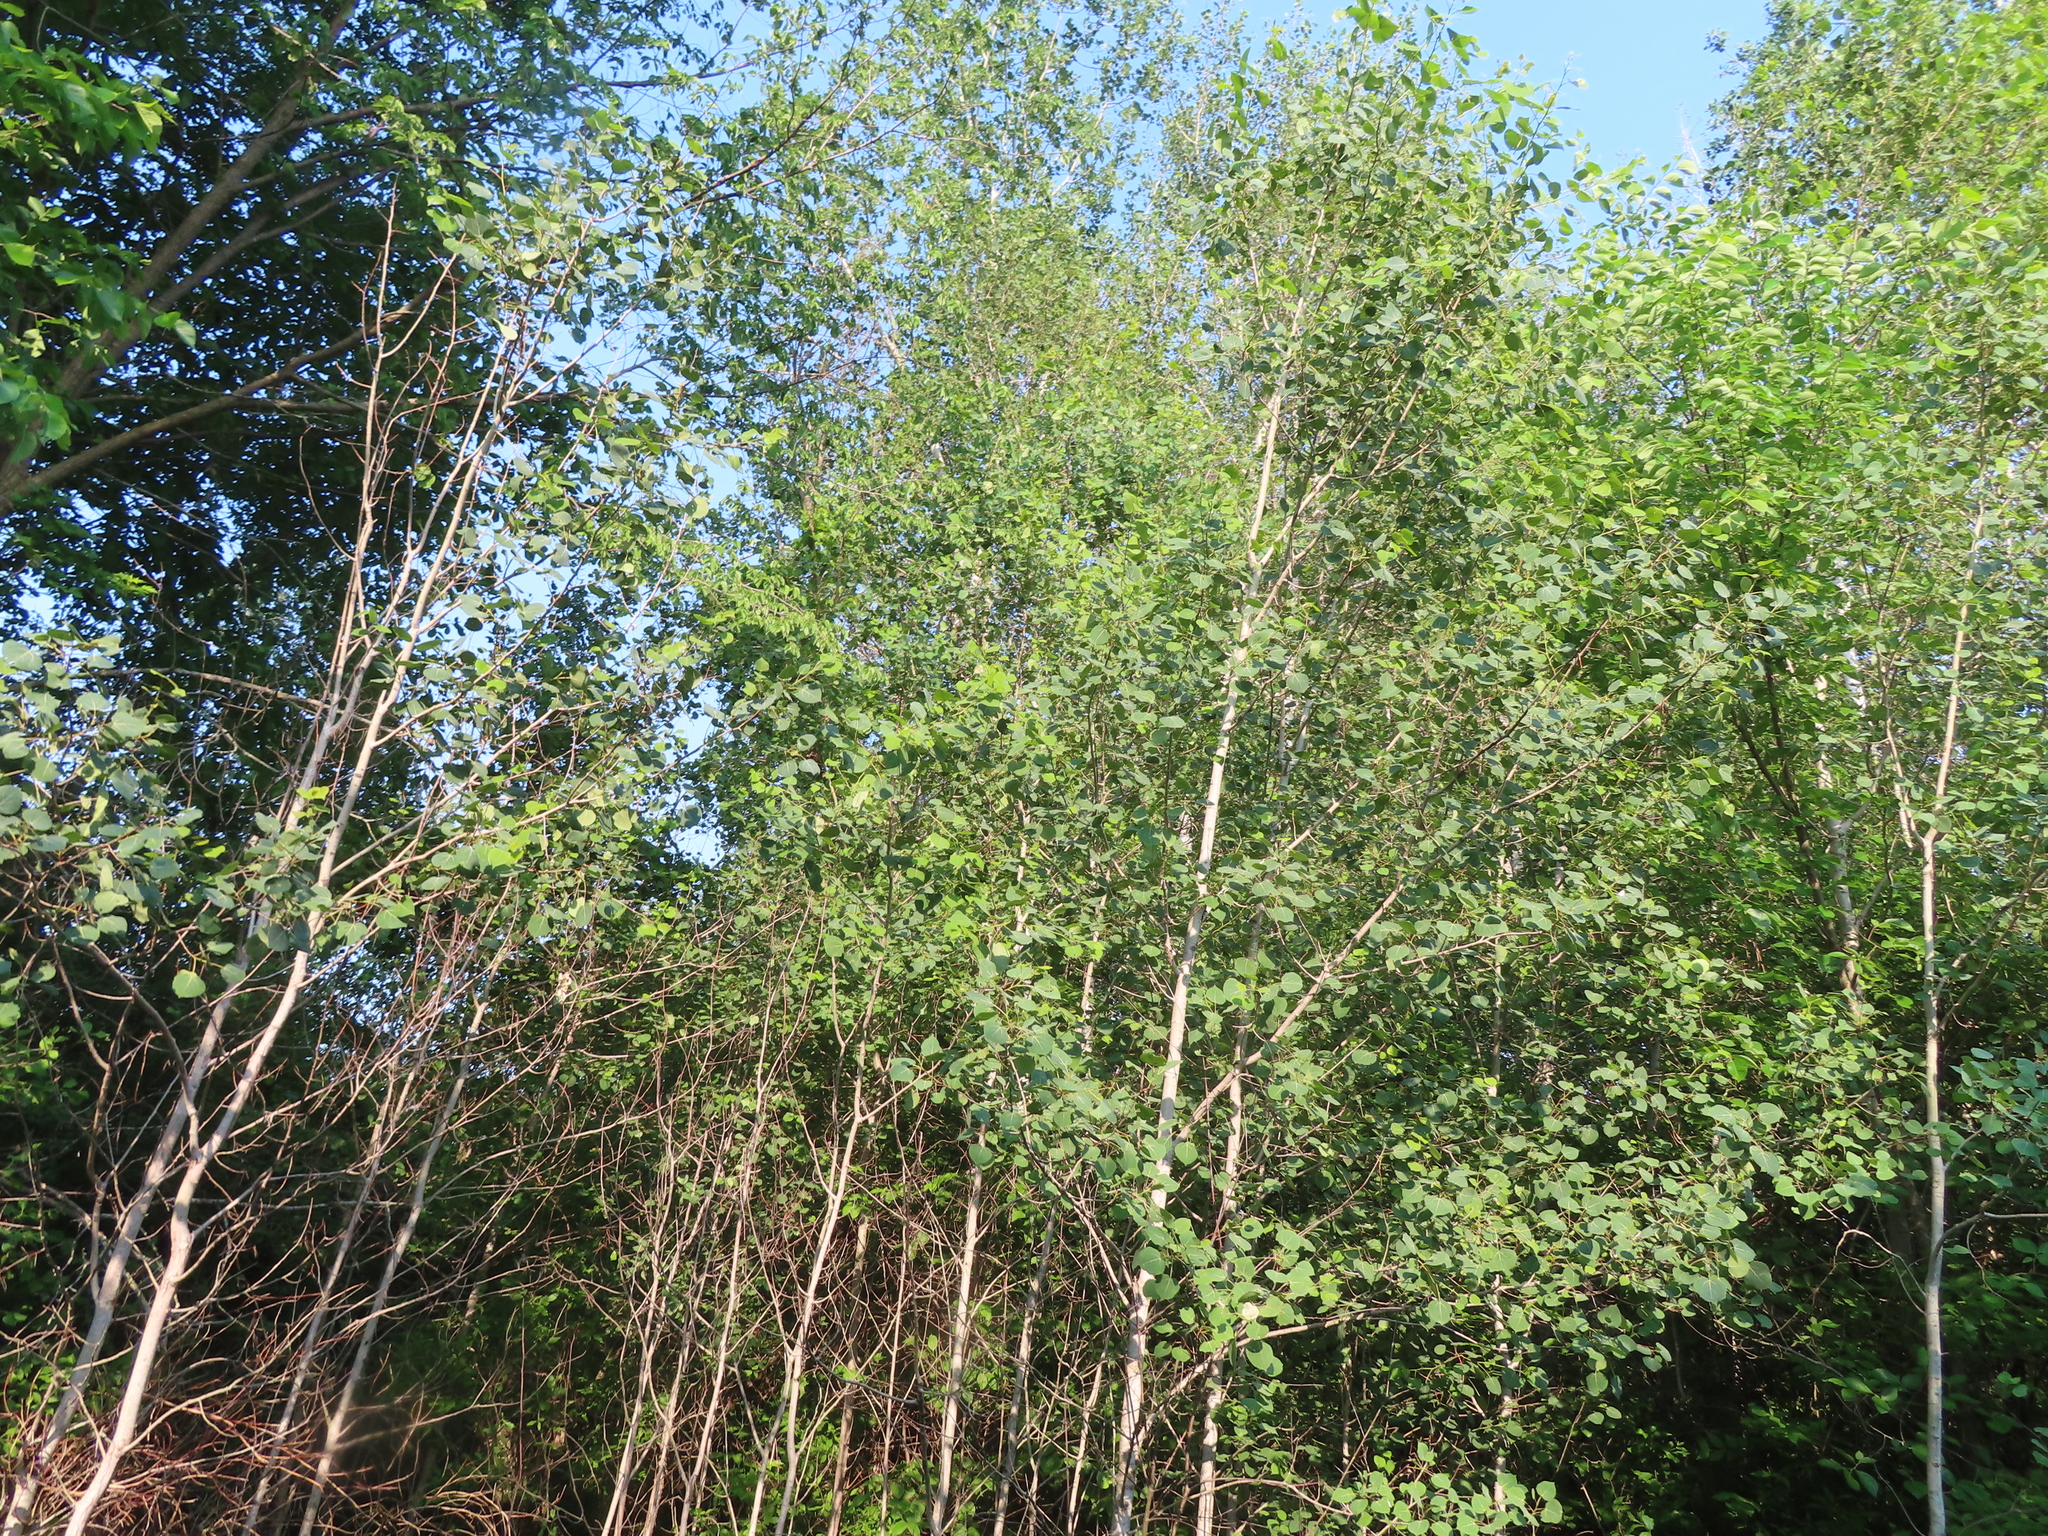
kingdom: Plantae
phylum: Tracheophyta
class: Magnoliopsida
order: Malpighiales
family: Salicaceae
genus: Populus
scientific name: Populus tremuloides
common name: Quaking aspen
